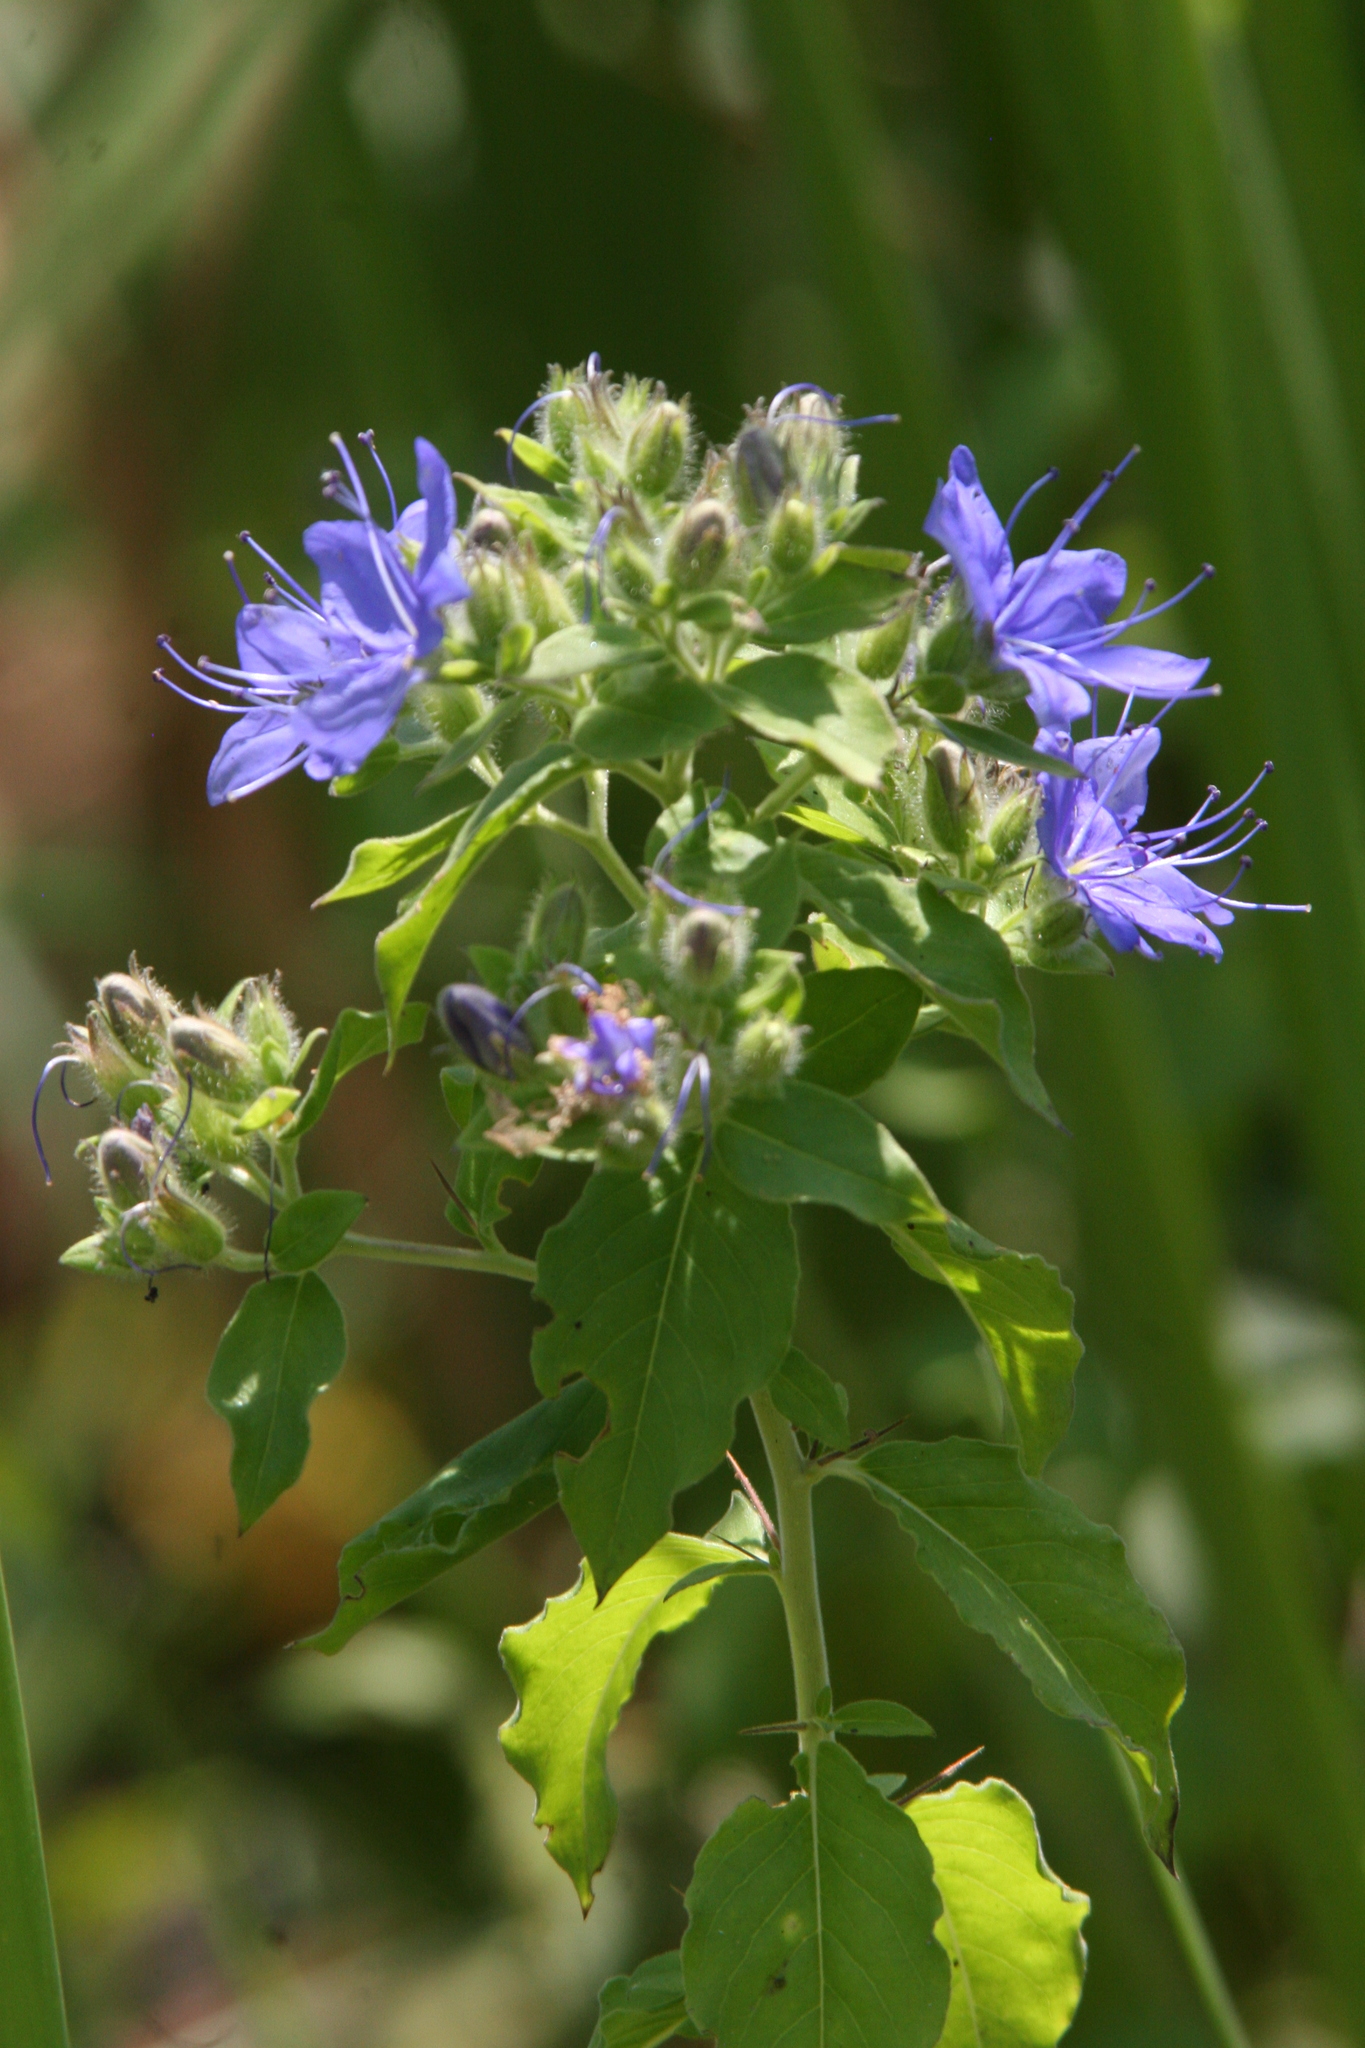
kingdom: Plantae
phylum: Tracheophyta
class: Magnoliopsida
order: Solanales
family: Hydroleaceae
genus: Hydrolea
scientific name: Hydrolea ovata
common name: Ovate false fiddleleaf
